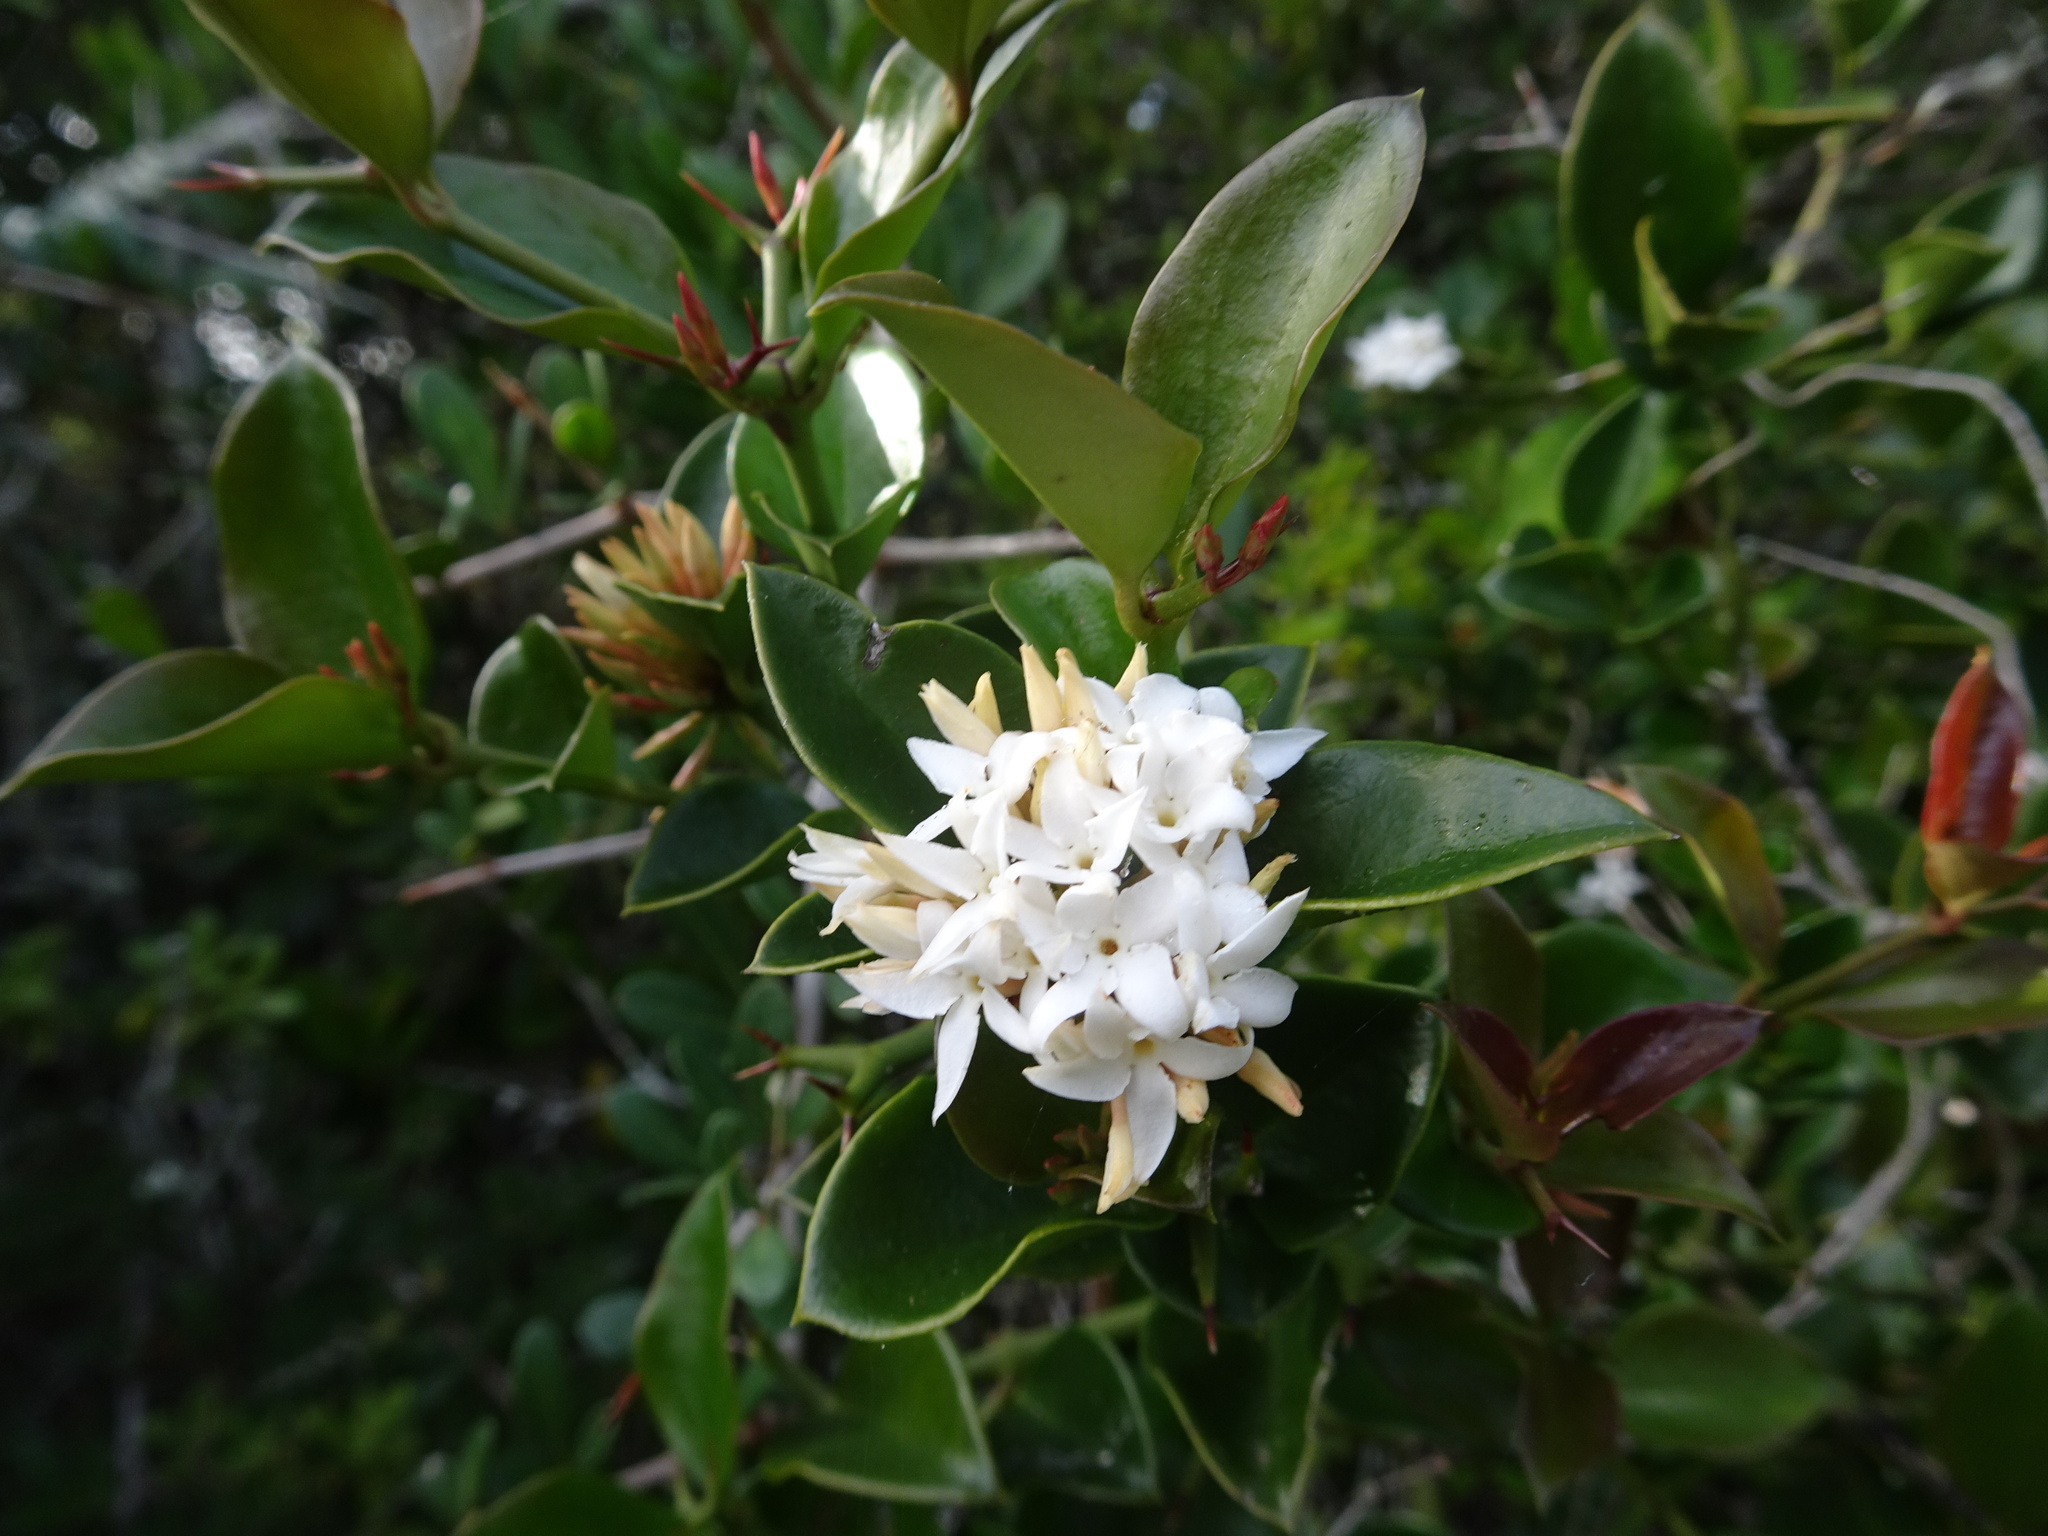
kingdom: Plantae
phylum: Tracheophyta
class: Magnoliopsida
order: Gentianales
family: Apocynaceae
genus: Carissa
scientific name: Carissa bispinosa
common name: Forest num-num
